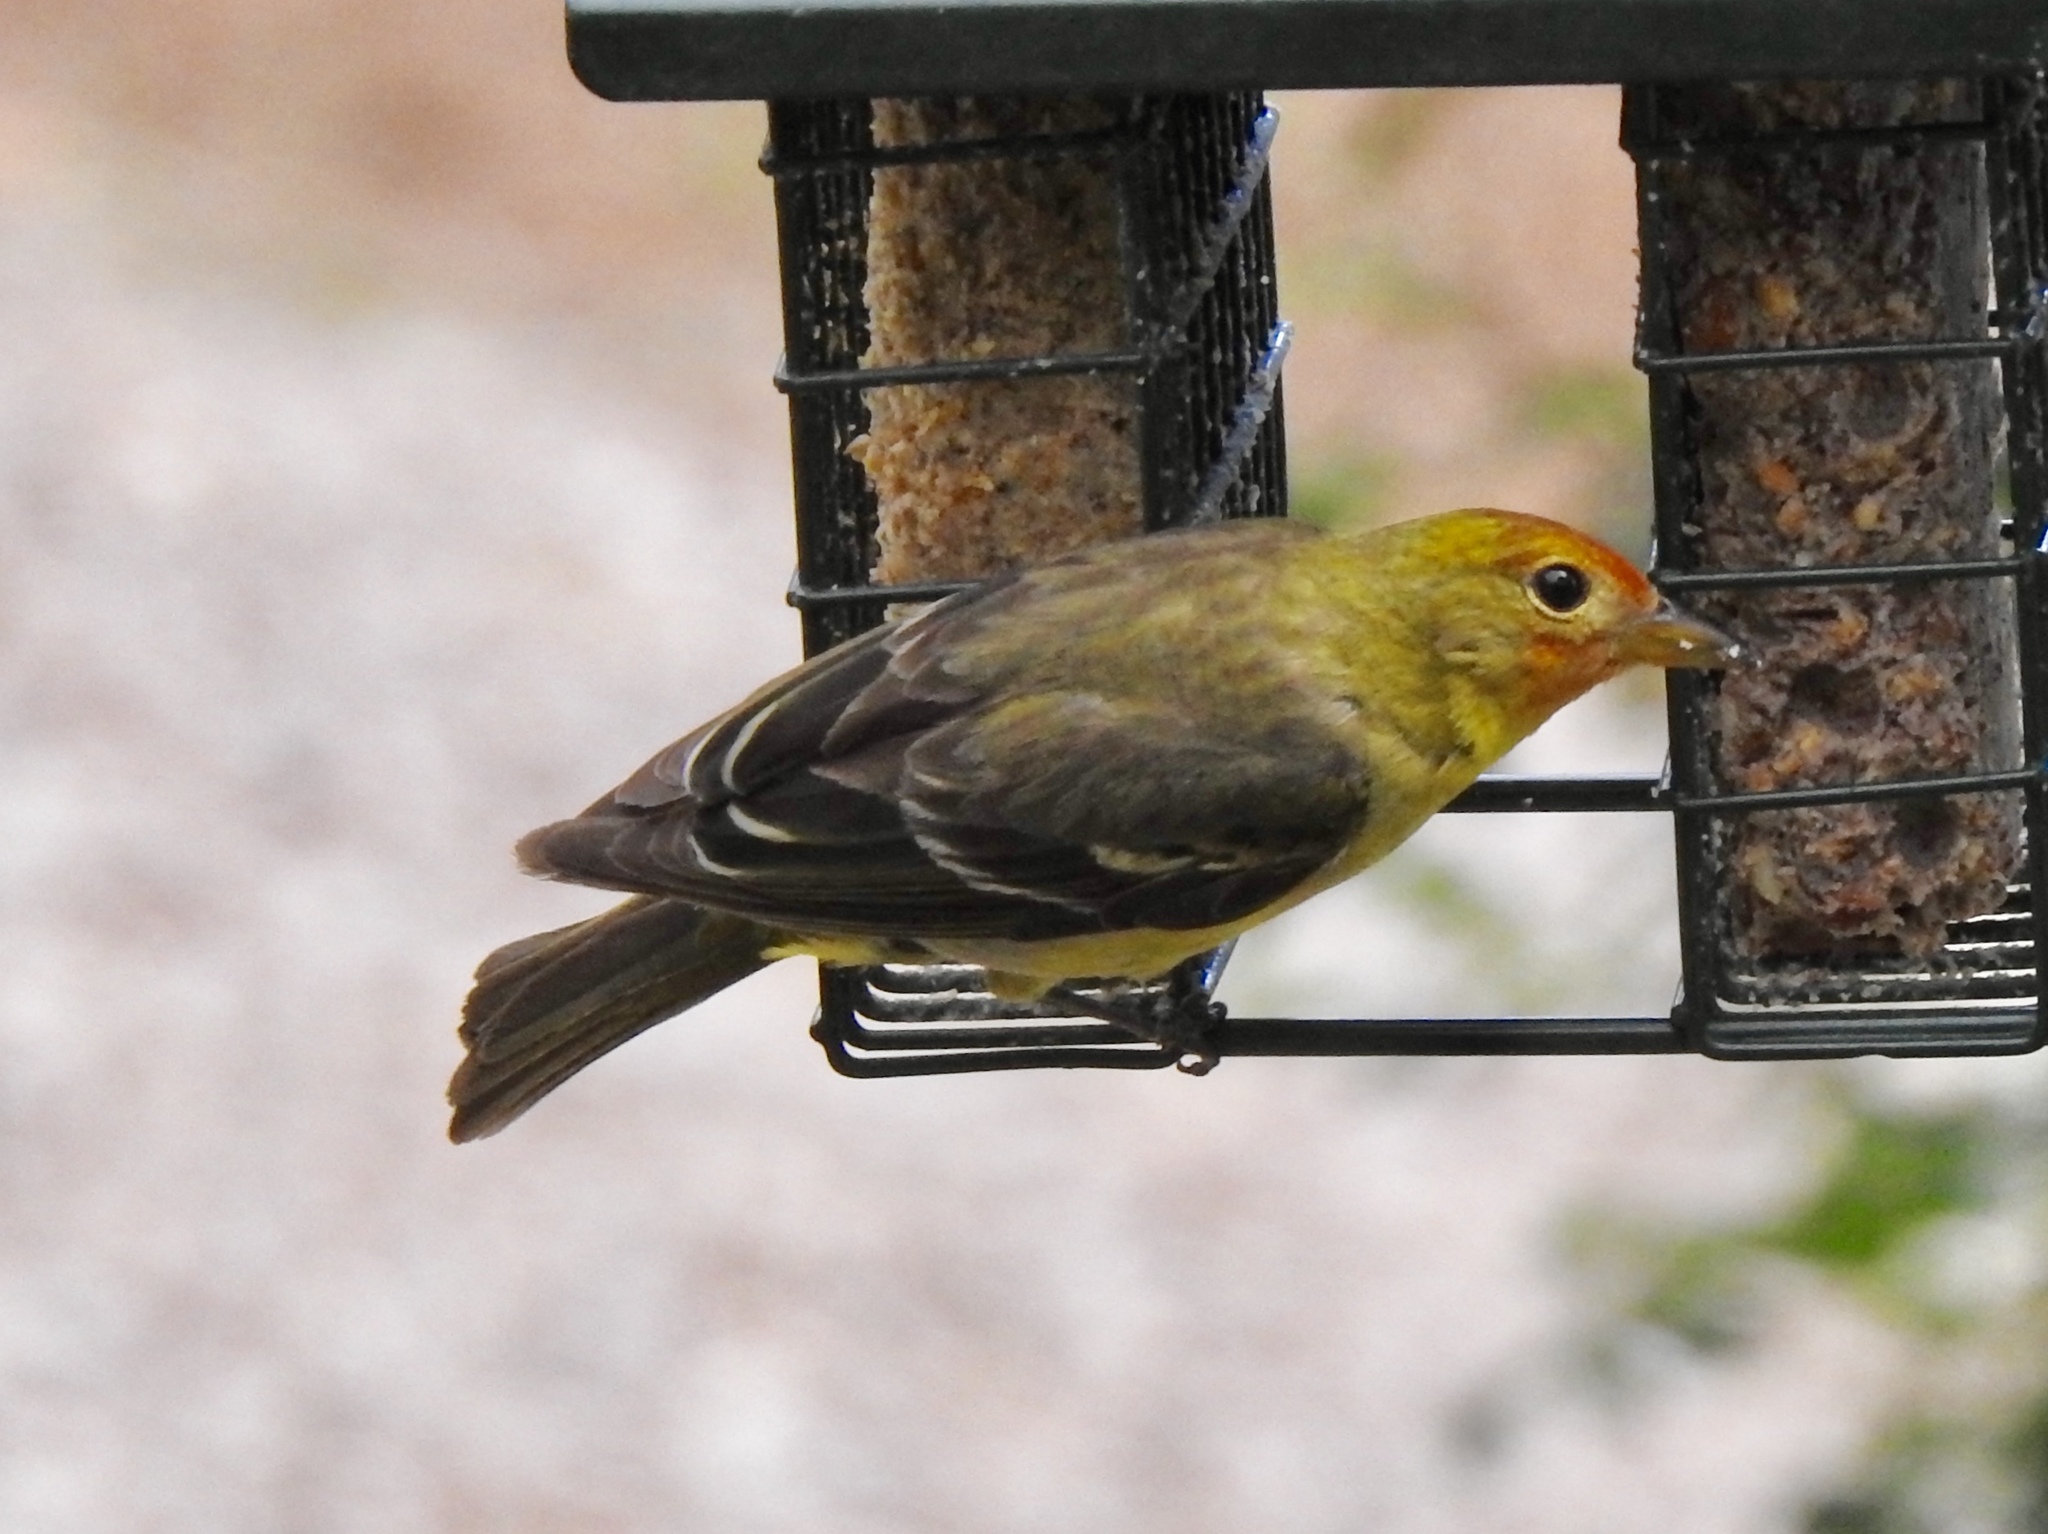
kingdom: Animalia
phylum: Chordata
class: Aves
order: Passeriformes
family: Cardinalidae
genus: Piranga
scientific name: Piranga ludoviciana
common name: Western tanager
